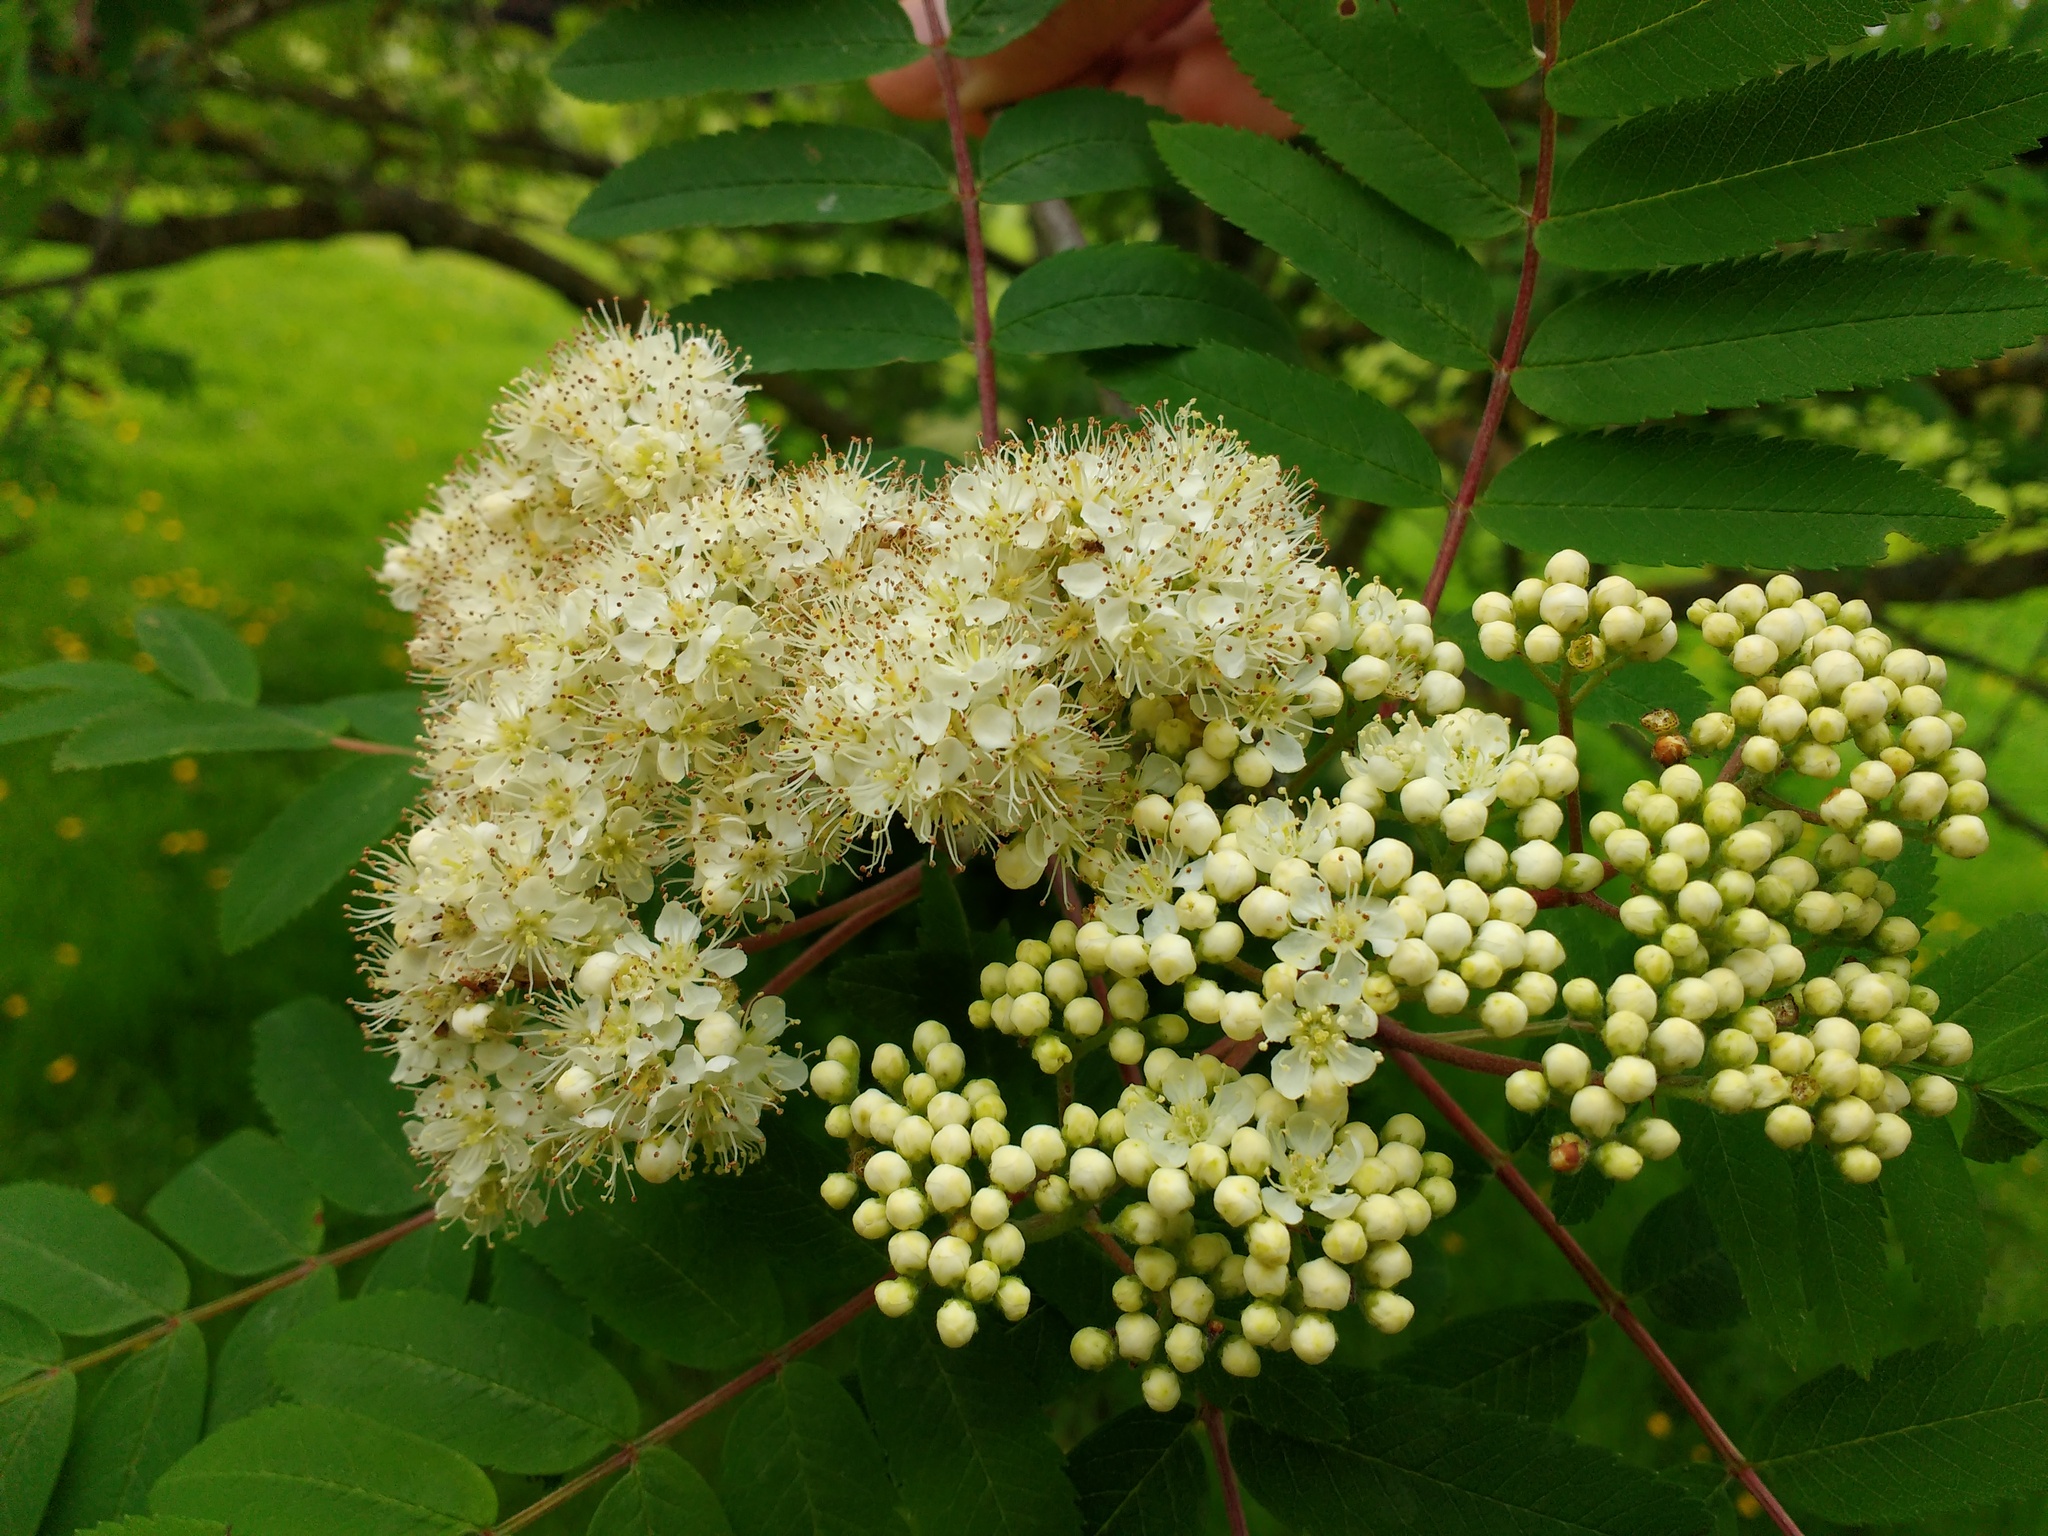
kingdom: Plantae
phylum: Tracheophyta
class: Magnoliopsida
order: Rosales
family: Rosaceae
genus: Sorbus
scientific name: Sorbus aucuparia
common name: Rowan
